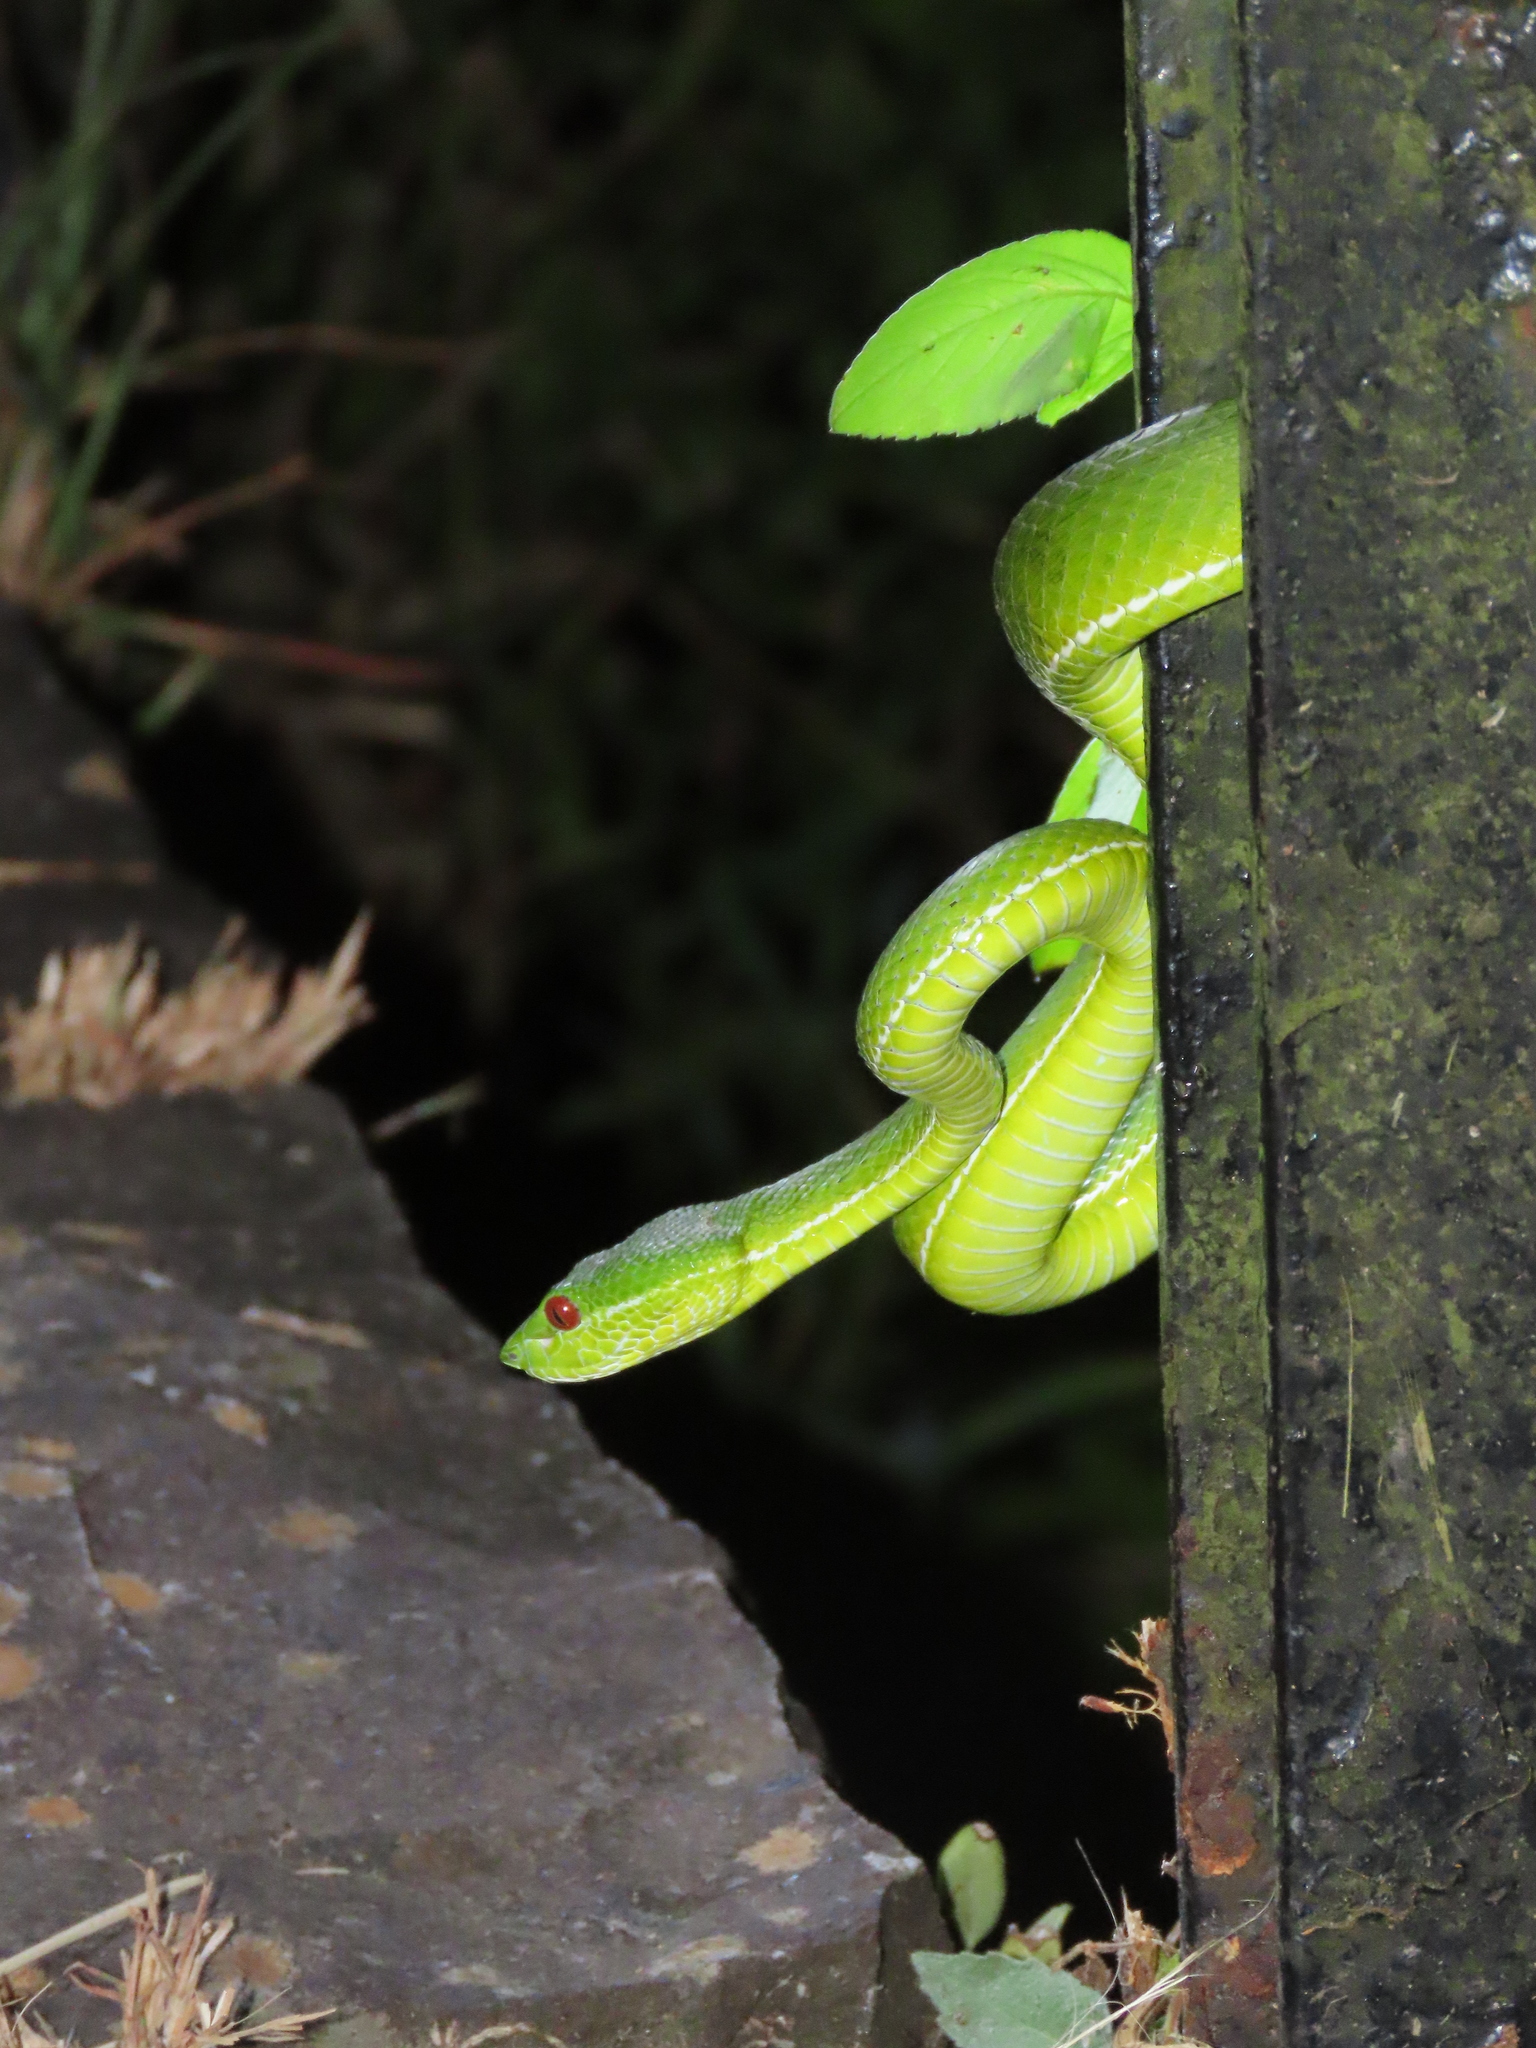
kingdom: Animalia
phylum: Chordata
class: Squamata
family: Viperidae
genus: Trimeresurus
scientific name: Trimeresurus stejnegeri
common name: Chen’s bamboo pit viper
